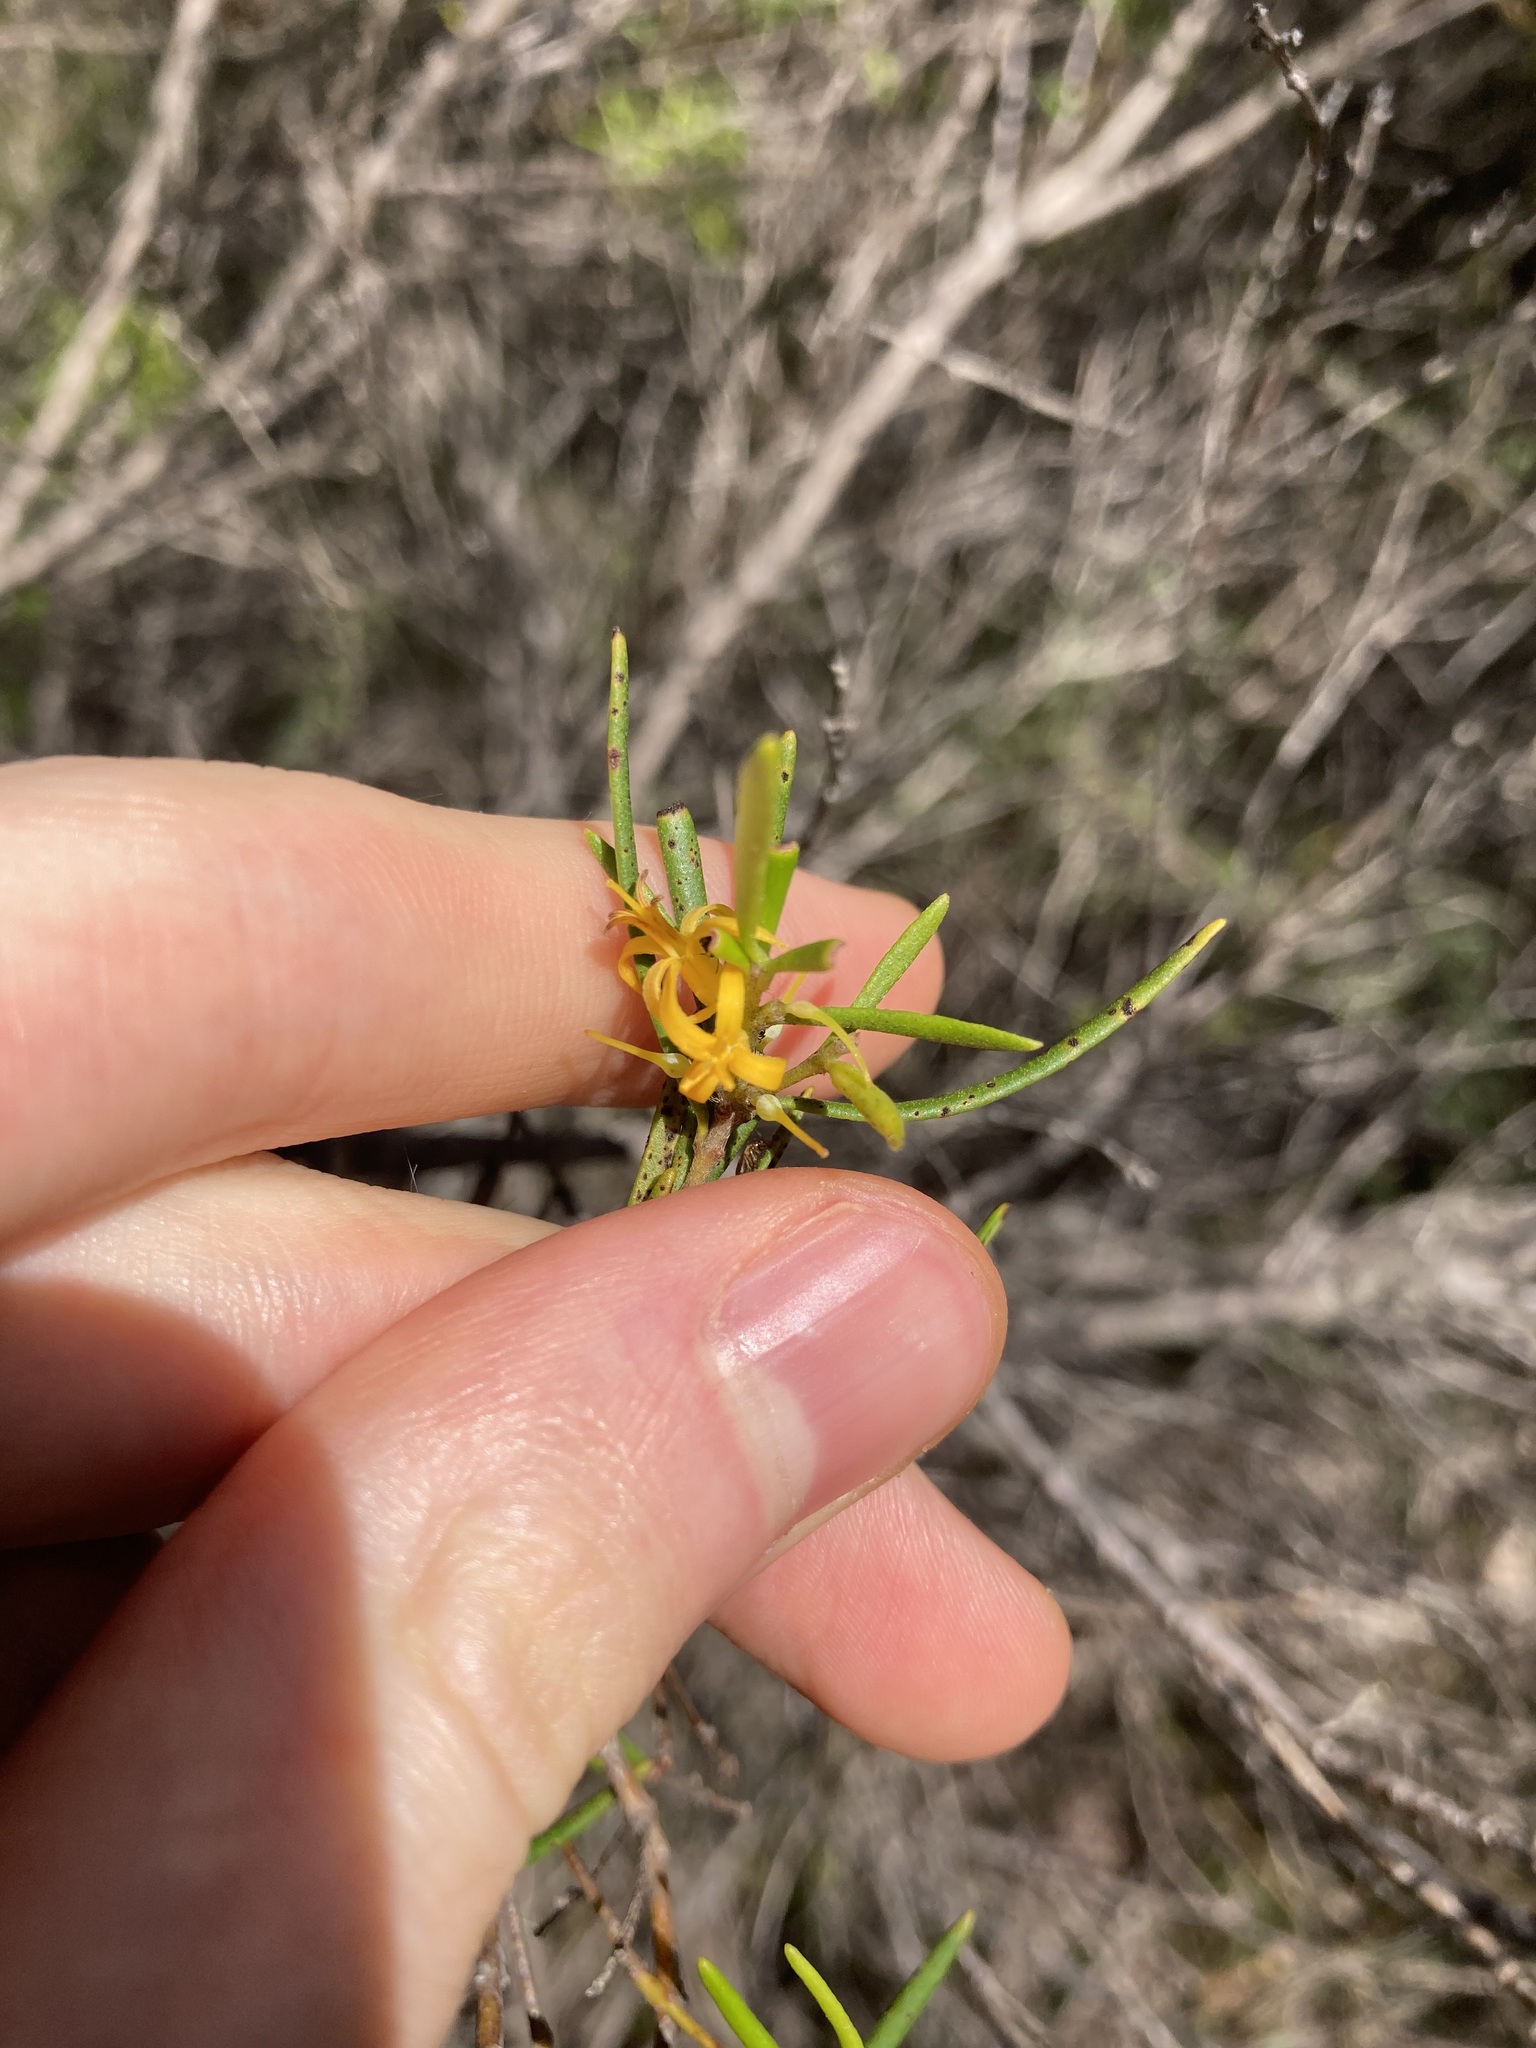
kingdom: Plantae
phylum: Tracheophyta
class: Magnoliopsida
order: Proteales
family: Proteaceae
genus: Persoonia
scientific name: Persoonia mollis
